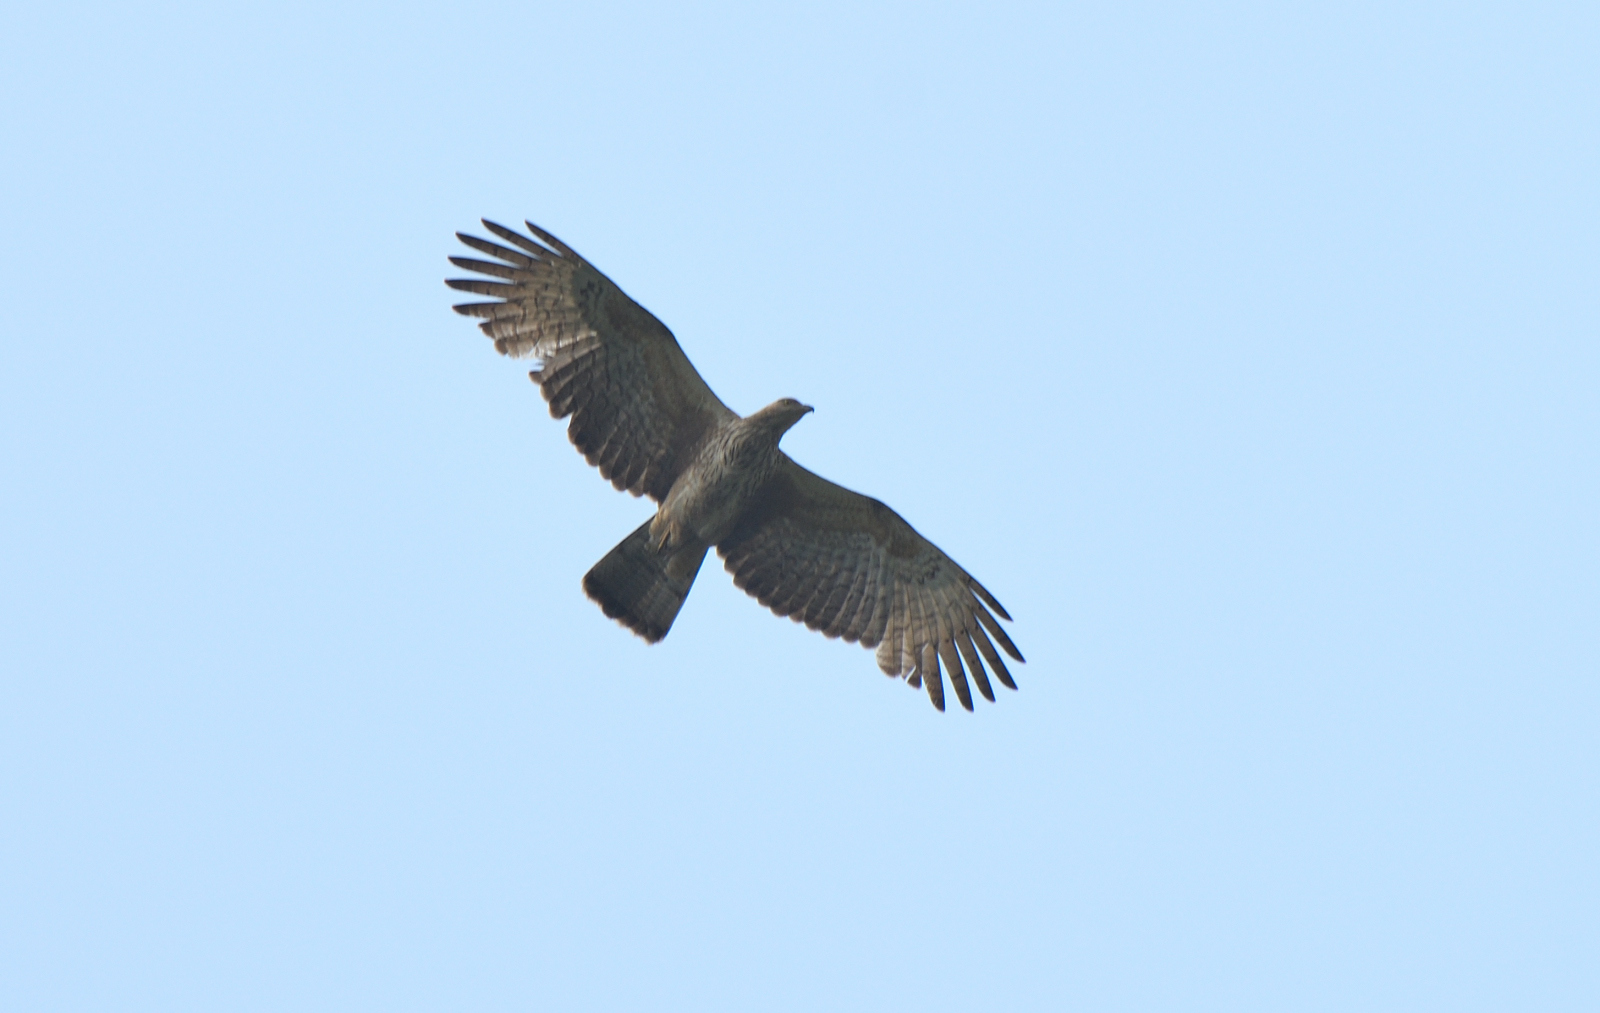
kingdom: Animalia
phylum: Chordata
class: Aves
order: Accipitriformes
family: Accipitridae
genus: Pernis
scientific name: Pernis ptilorhynchus
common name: Crested honey buzzard
